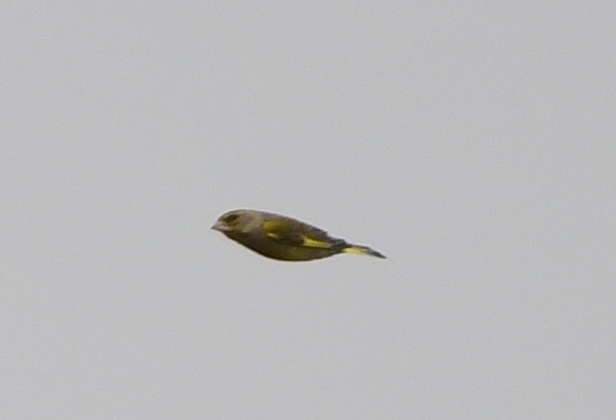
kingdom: Plantae
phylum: Tracheophyta
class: Liliopsida
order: Poales
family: Poaceae
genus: Chloris
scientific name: Chloris chloris
